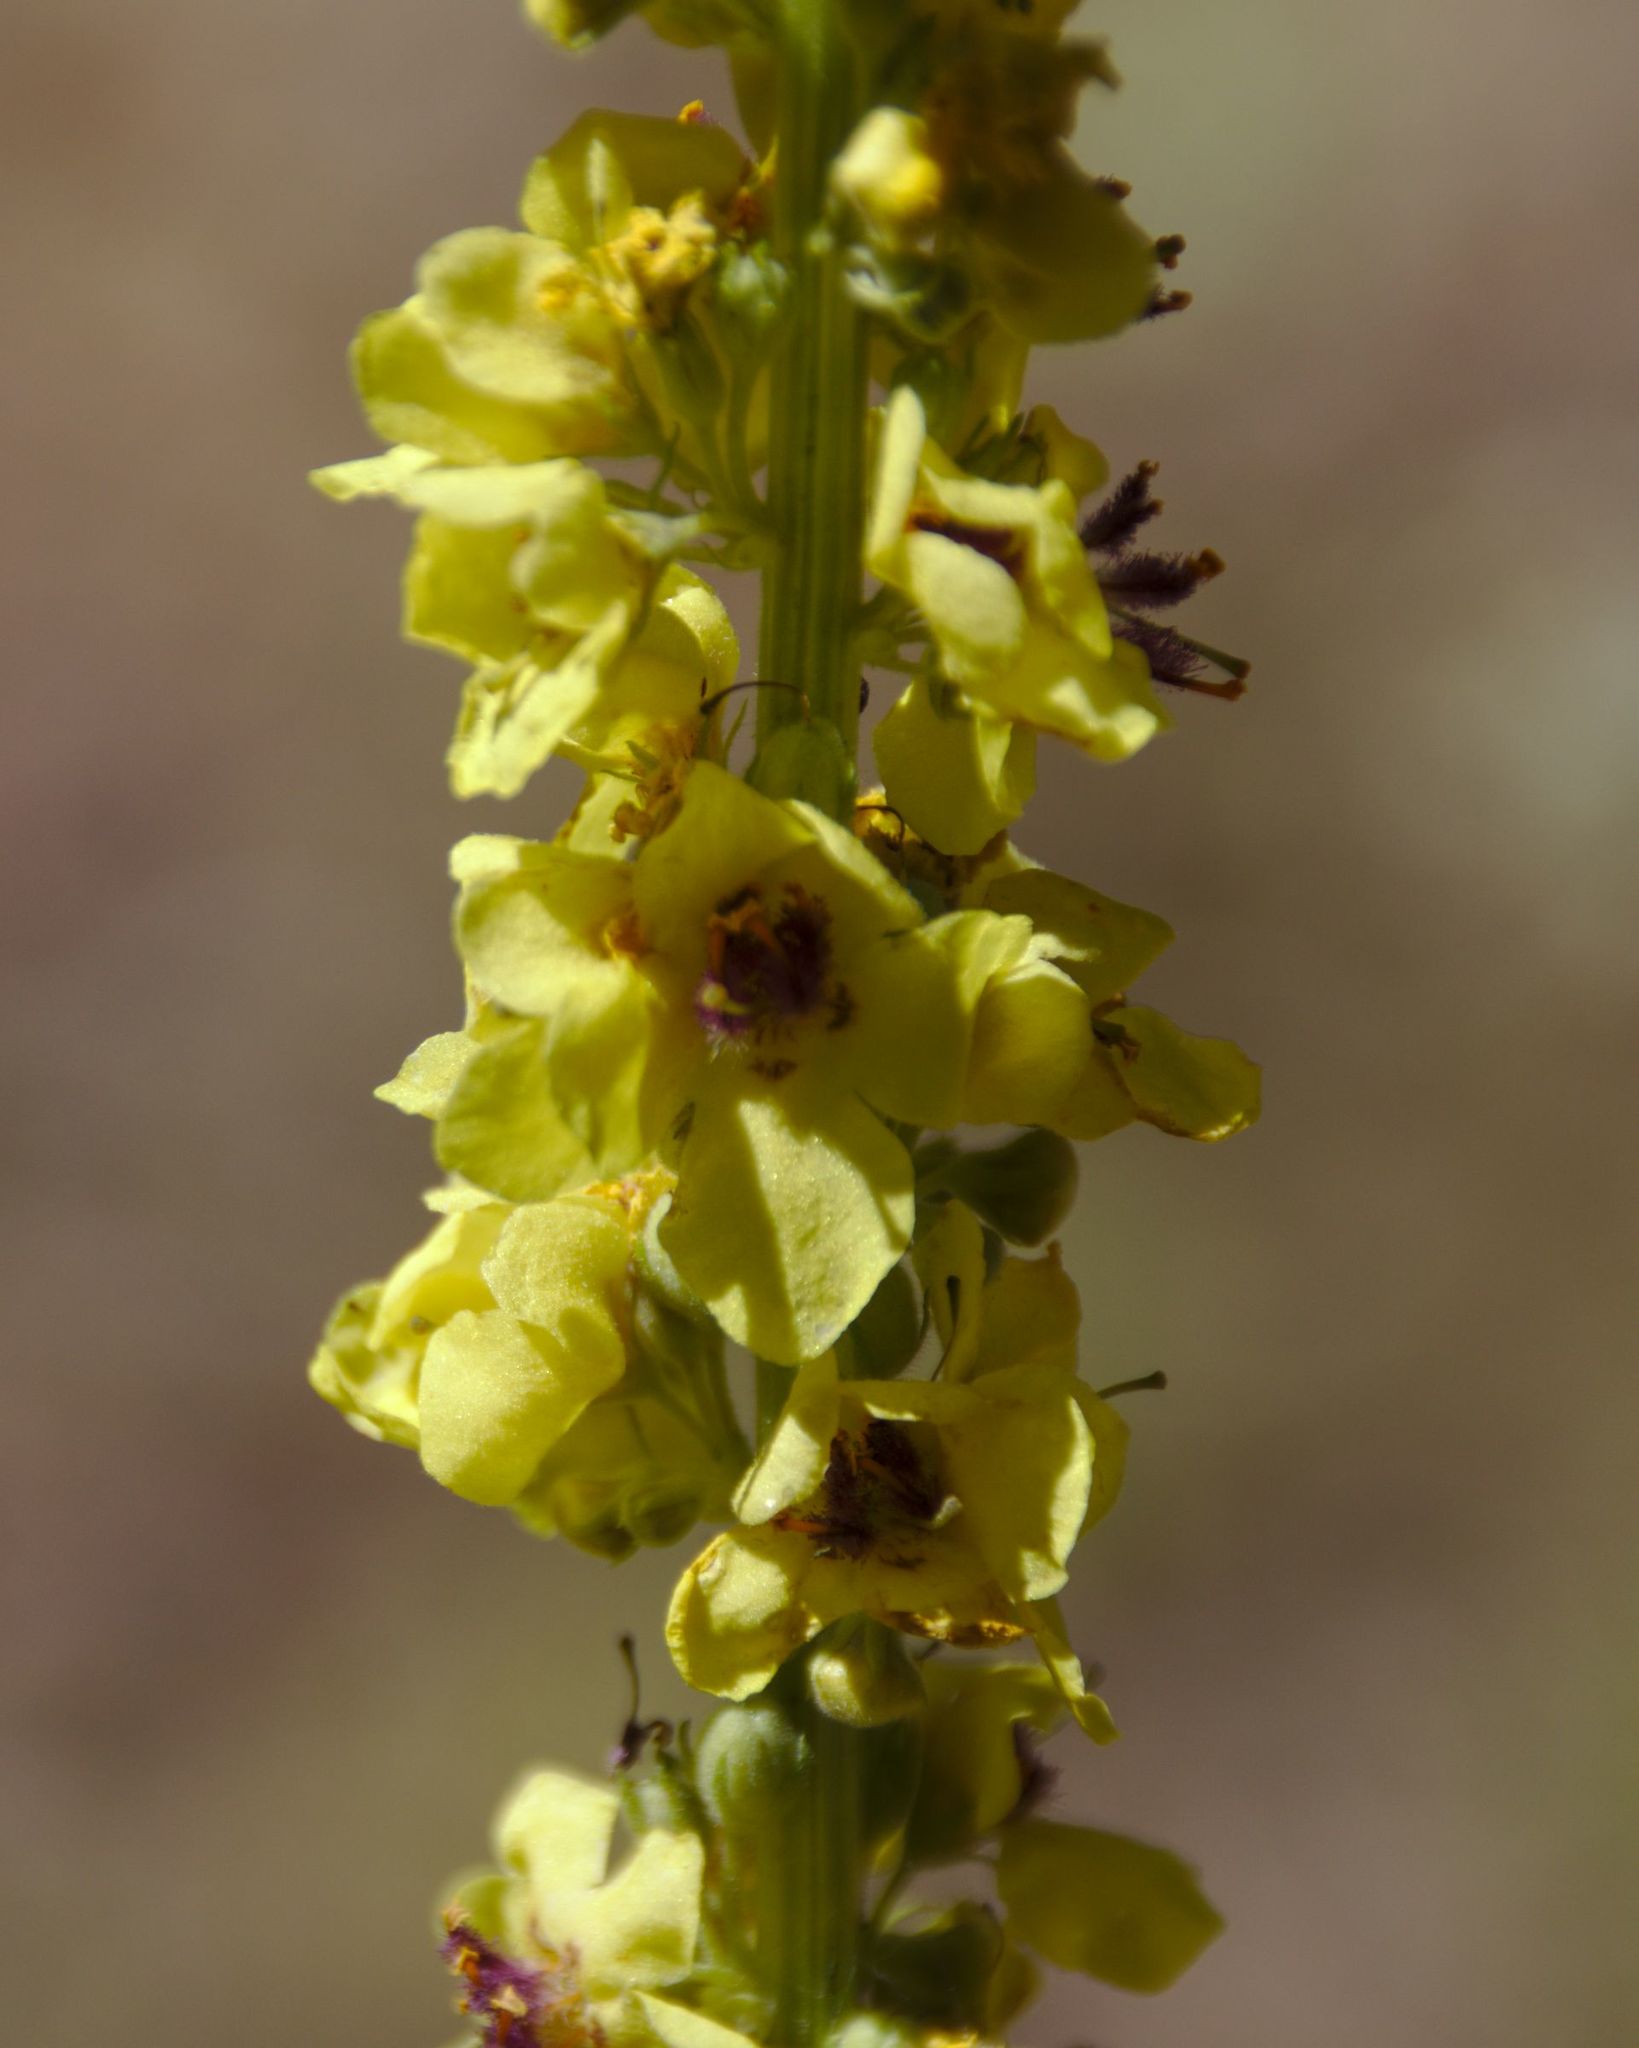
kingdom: Plantae
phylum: Tracheophyta
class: Magnoliopsida
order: Lamiales
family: Scrophulariaceae
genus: Verbascum
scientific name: Verbascum nigrum
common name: Dark mullein
